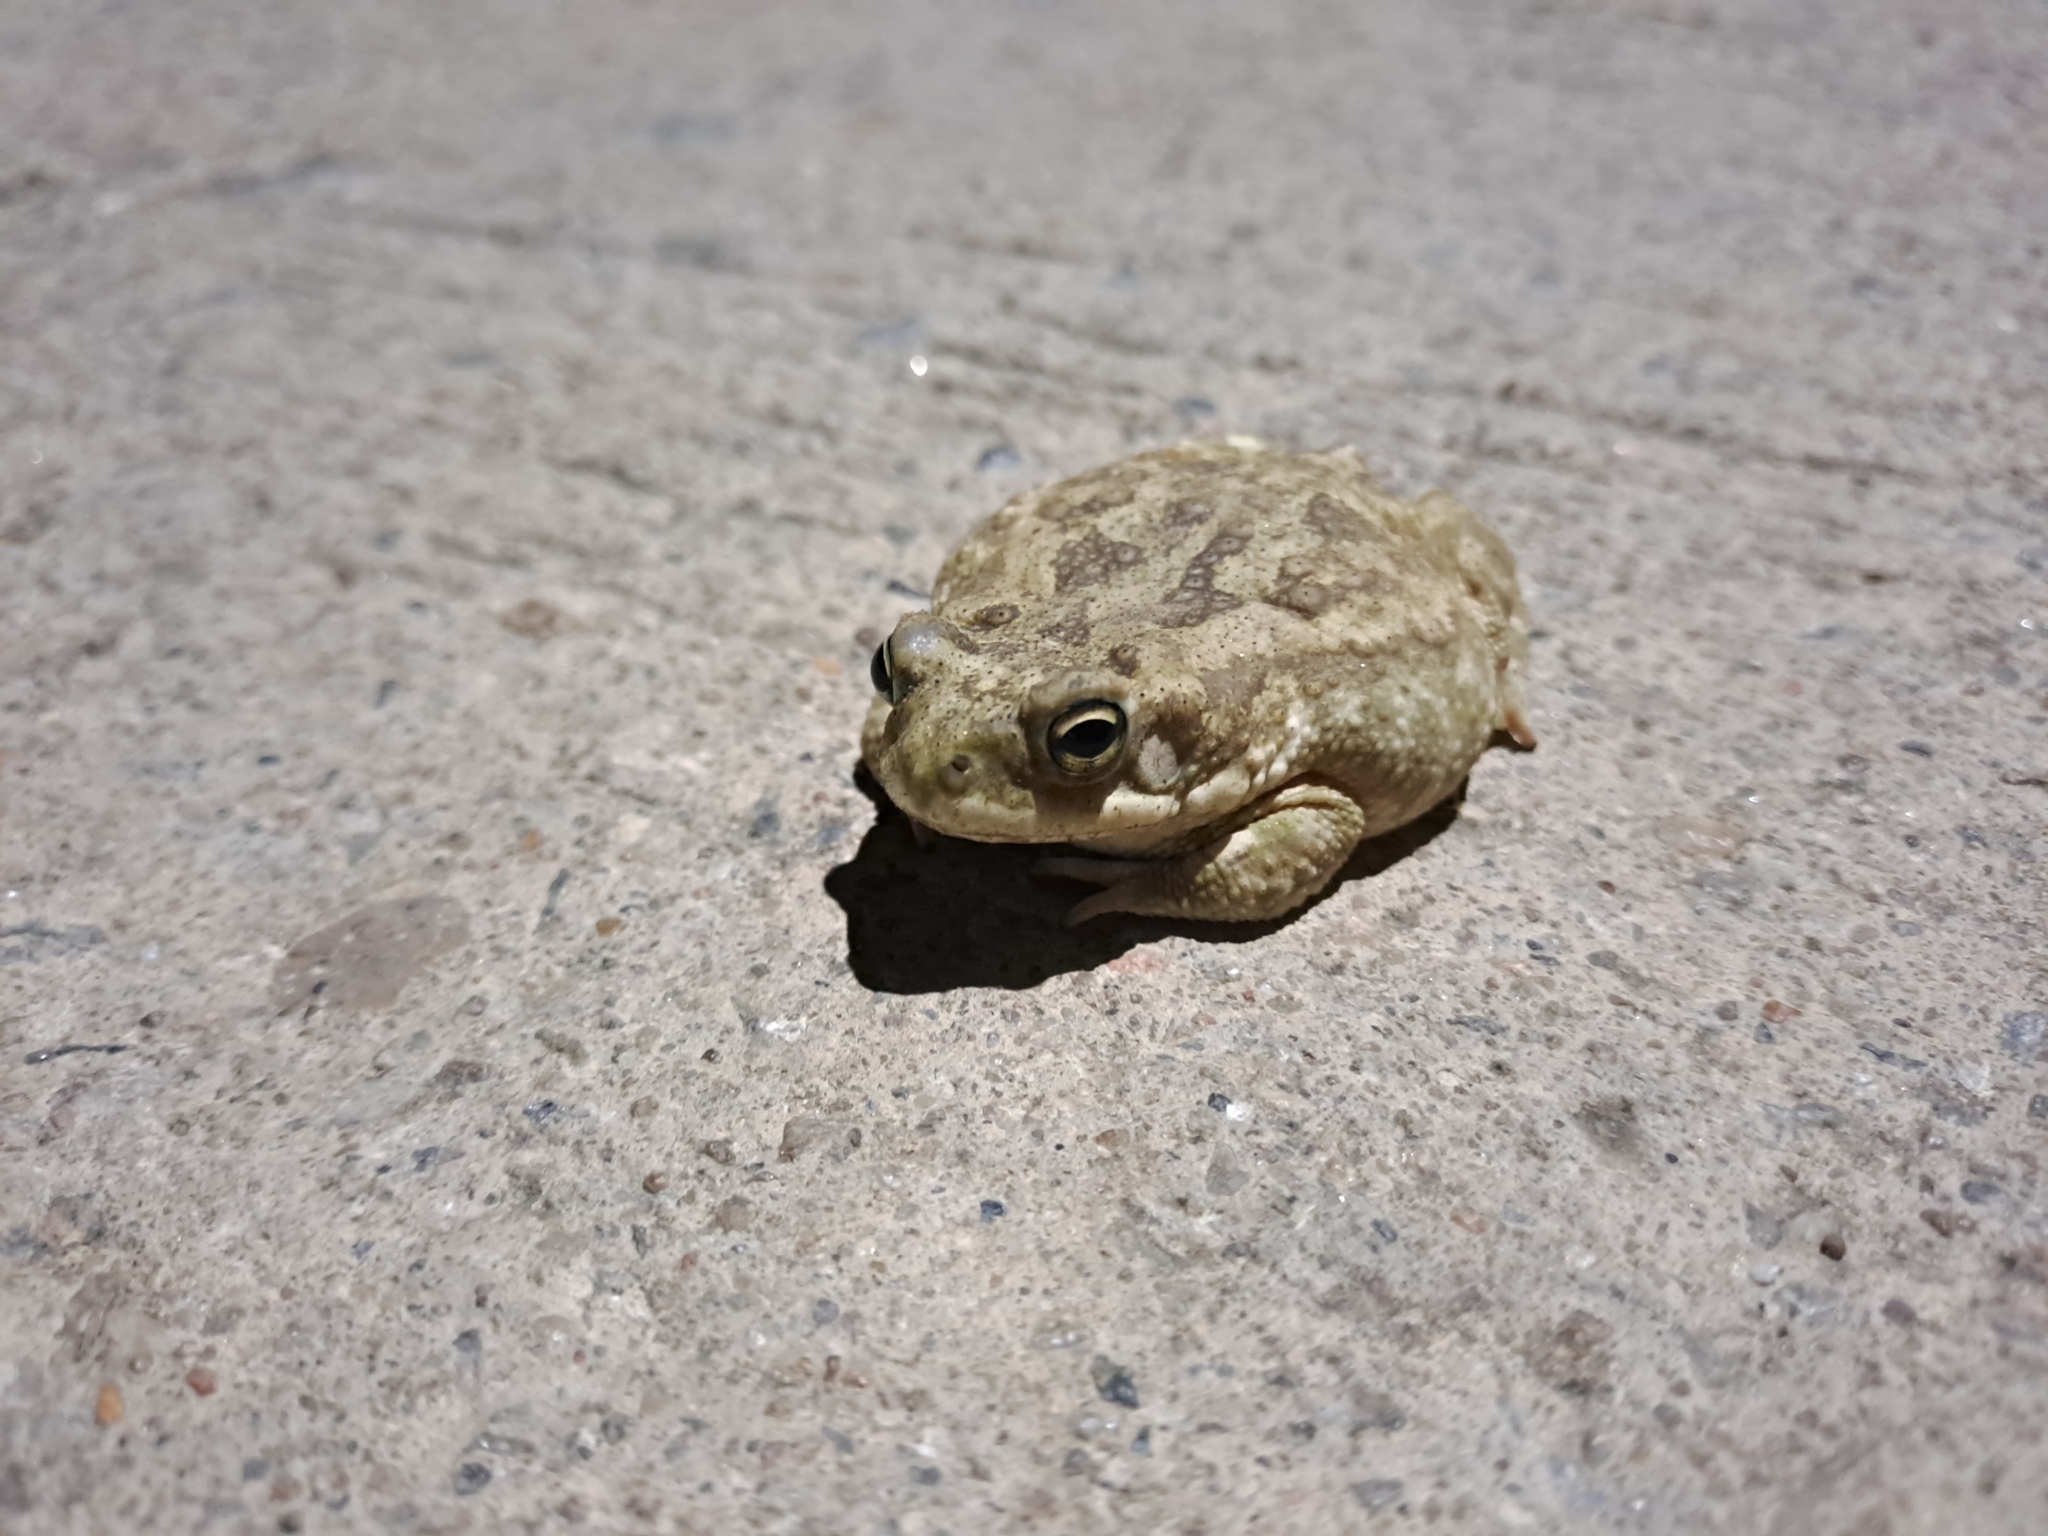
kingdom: Animalia
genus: Firouzophrynus
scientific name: Firouzophrynus
